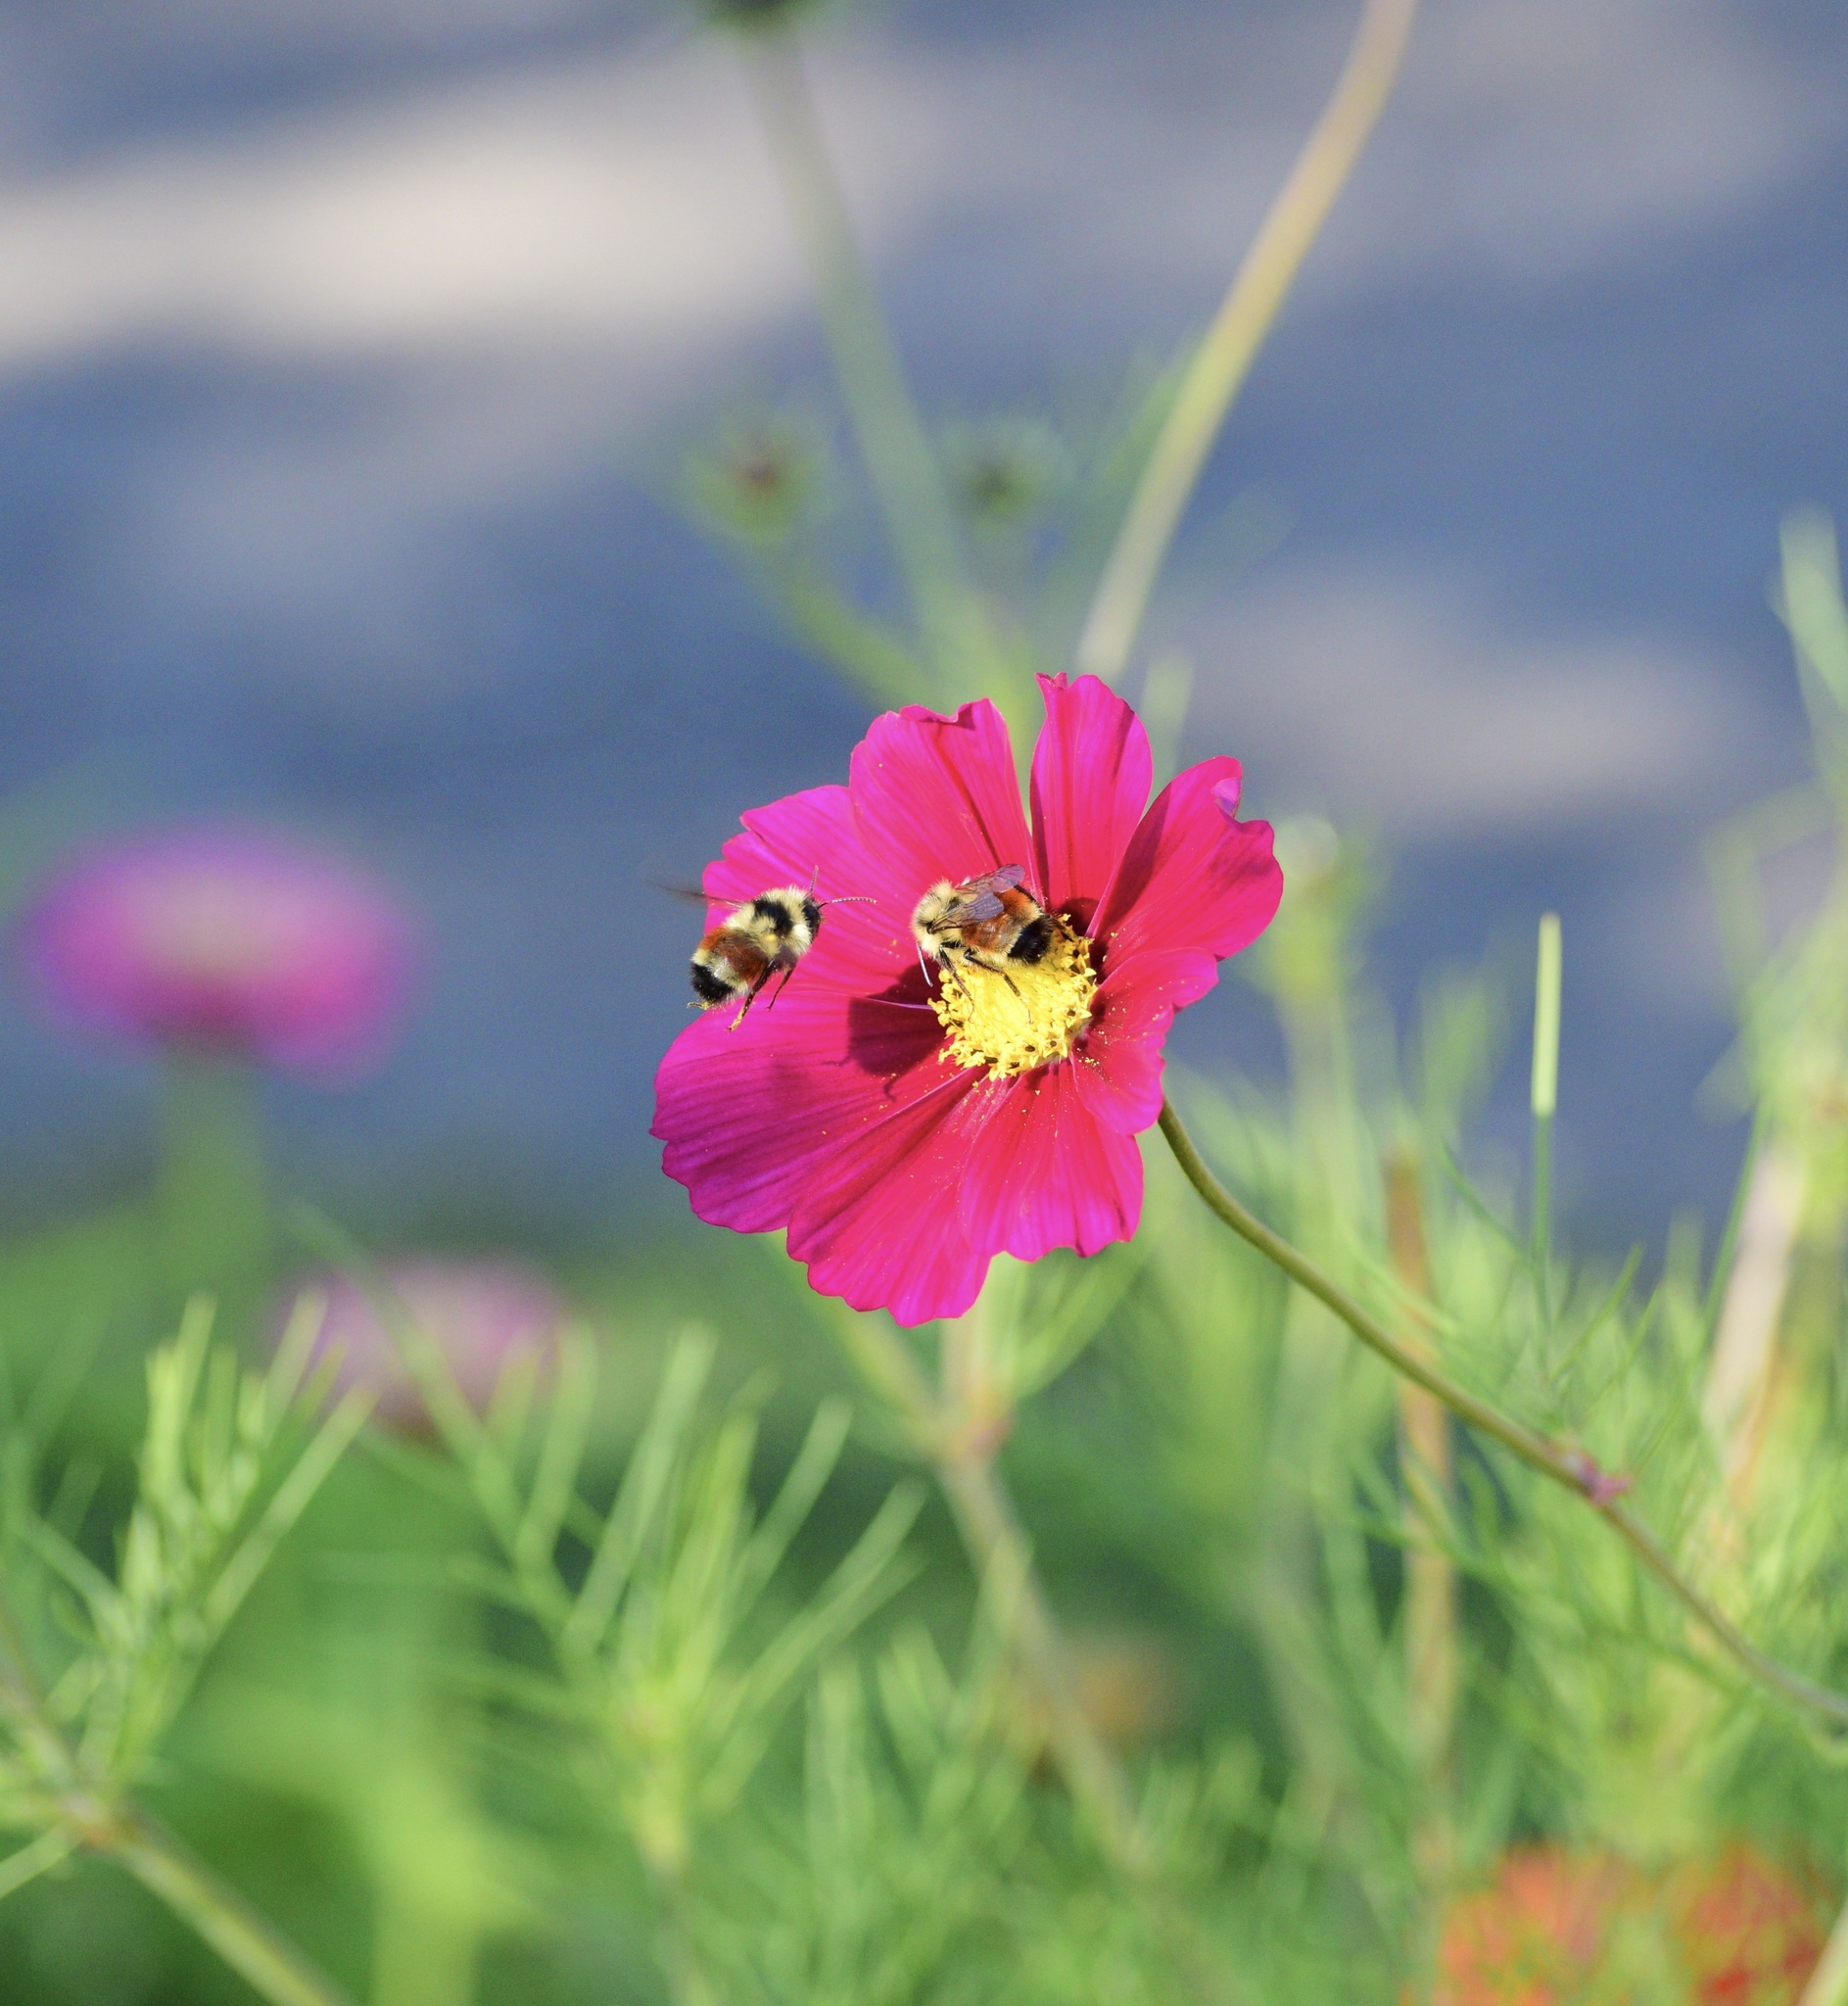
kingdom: Animalia
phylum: Arthropoda
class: Insecta
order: Hymenoptera
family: Apidae
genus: Bombus
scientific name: Bombus ternarius
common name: Tri-colored bumble bee
